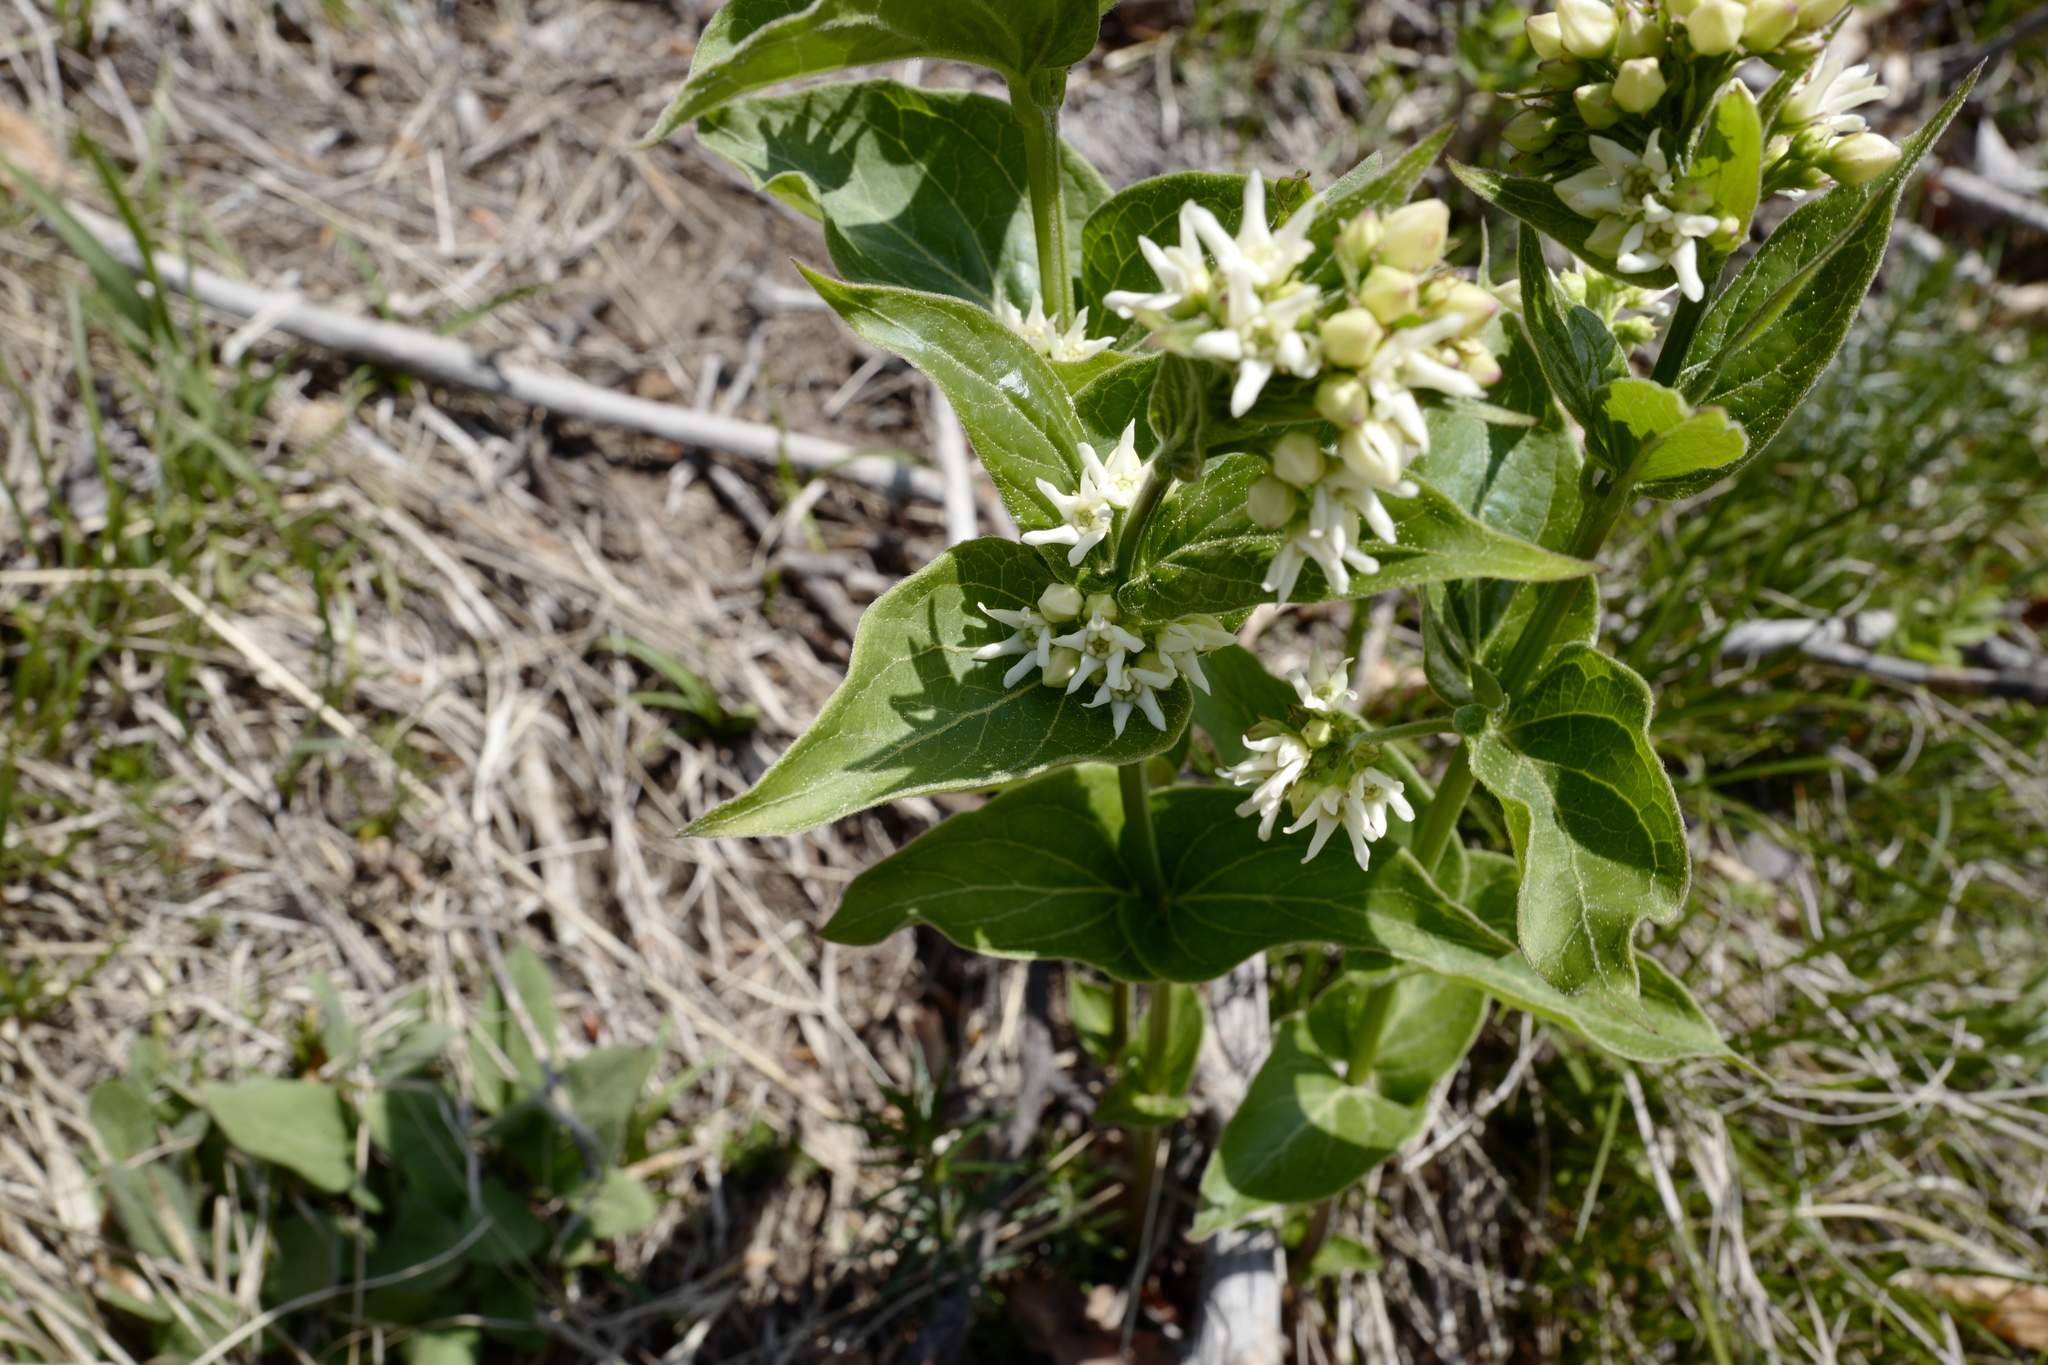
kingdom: Plantae
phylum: Tracheophyta
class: Magnoliopsida
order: Gentianales
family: Apocynaceae
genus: Vincetoxicum
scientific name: Vincetoxicum hirundinaria
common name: White swallowwort
